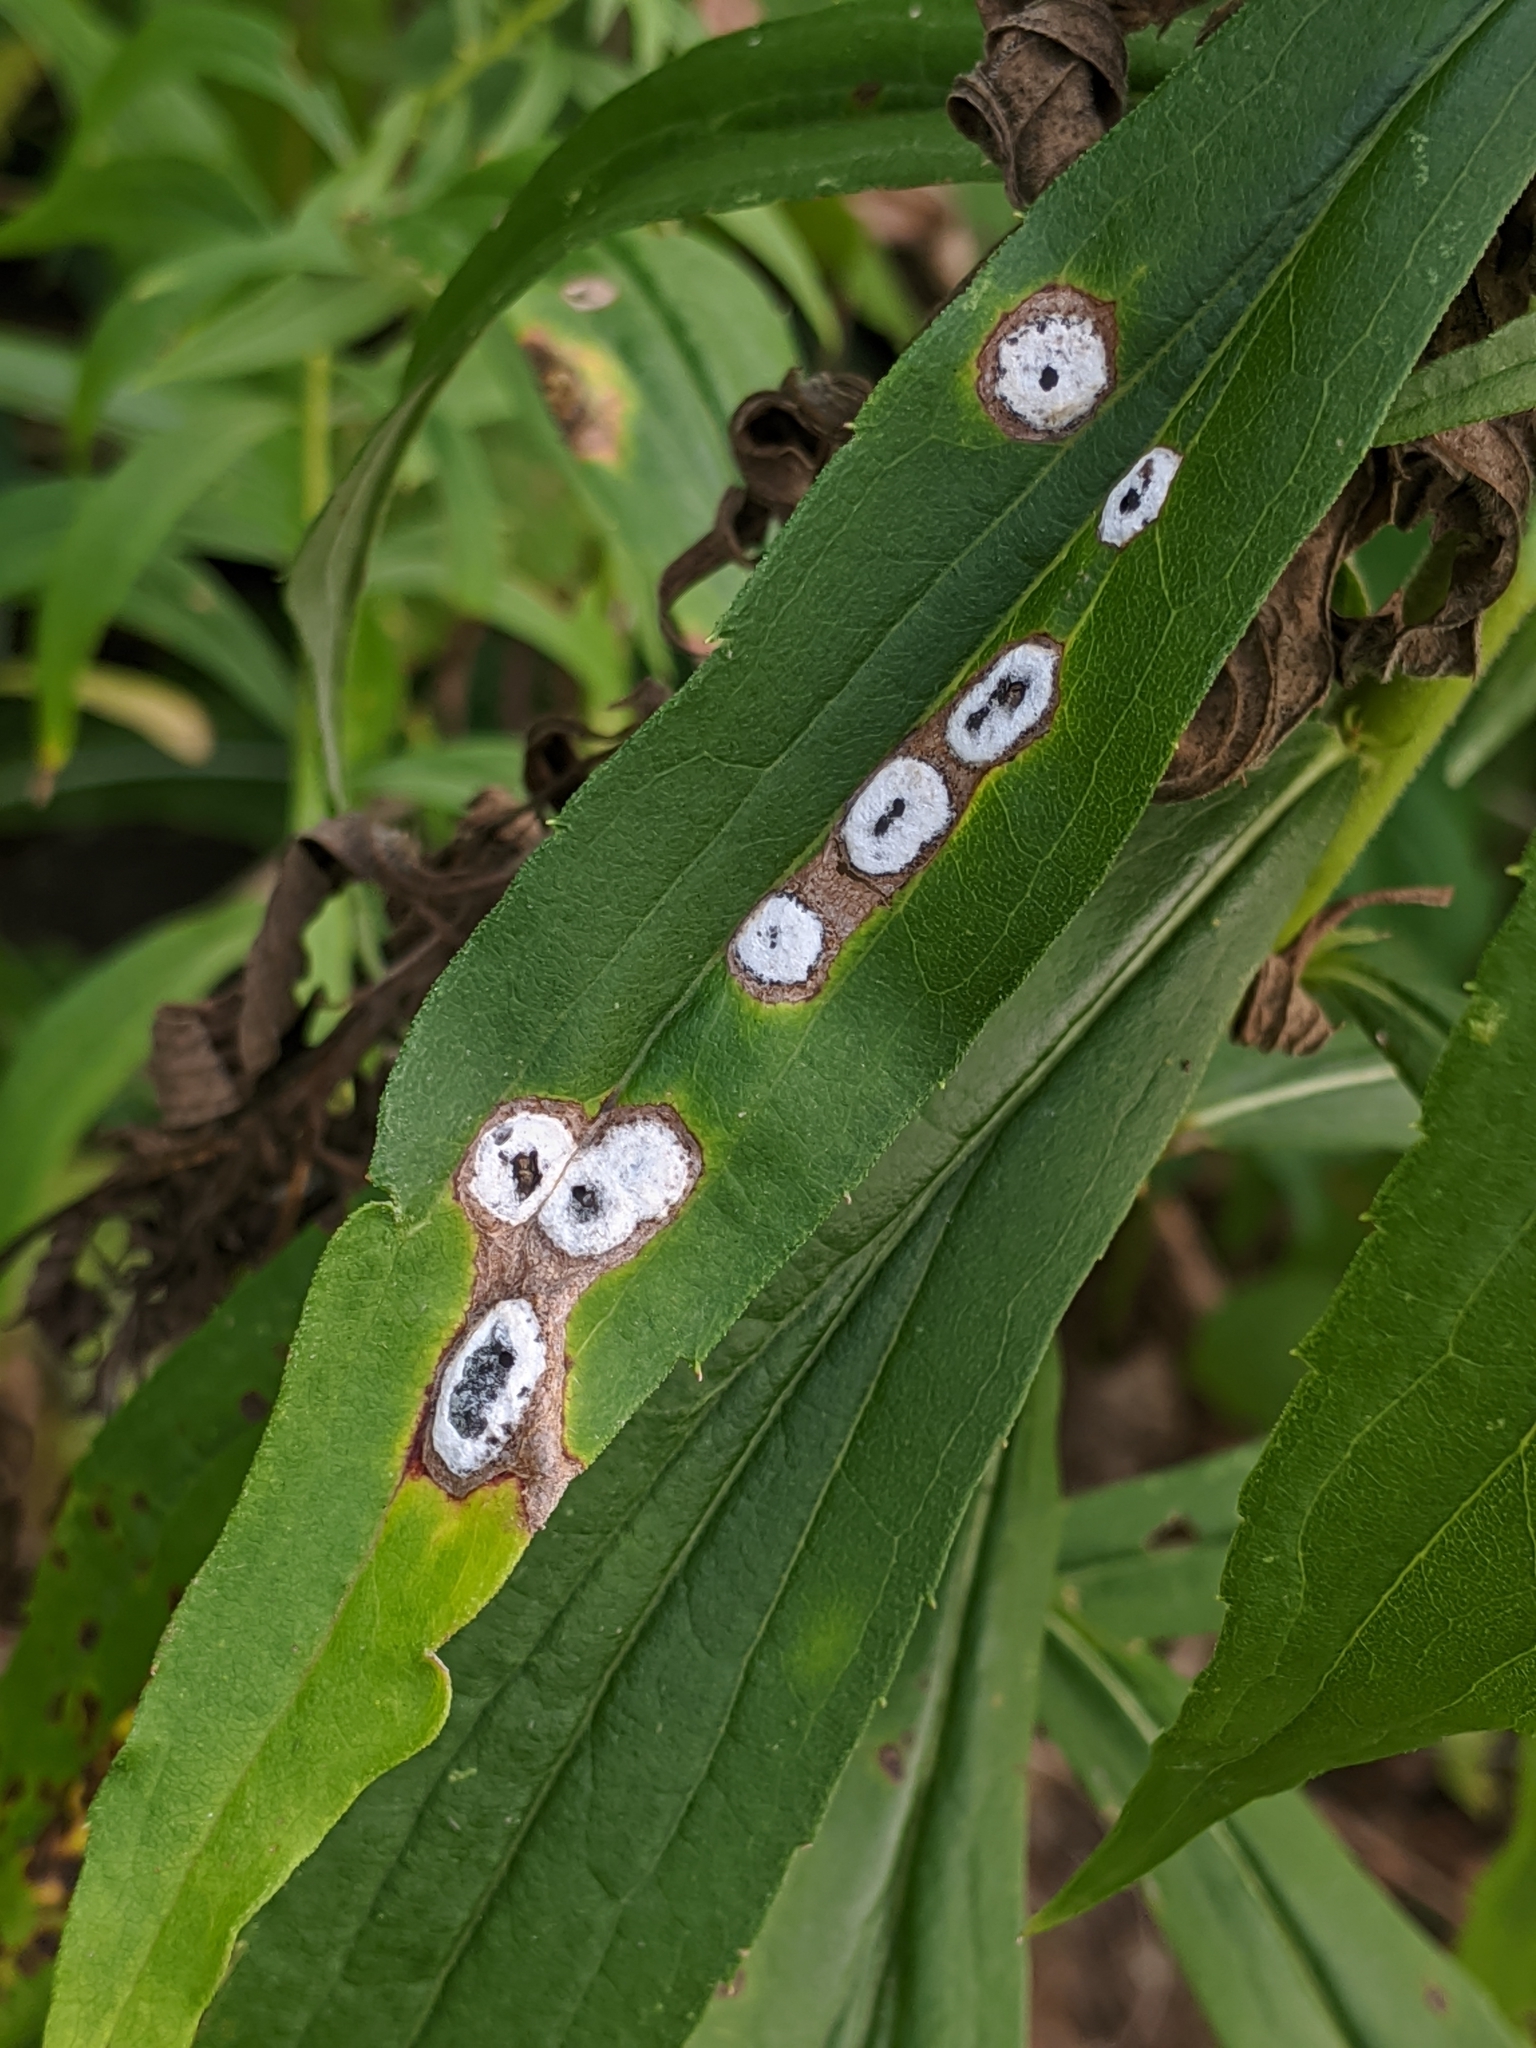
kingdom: Animalia
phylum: Arthropoda
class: Insecta
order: Diptera
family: Cecidomyiidae
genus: Asteromyia
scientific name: Asteromyia carbonifera
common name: Carbonifera goldenrod gall midge
